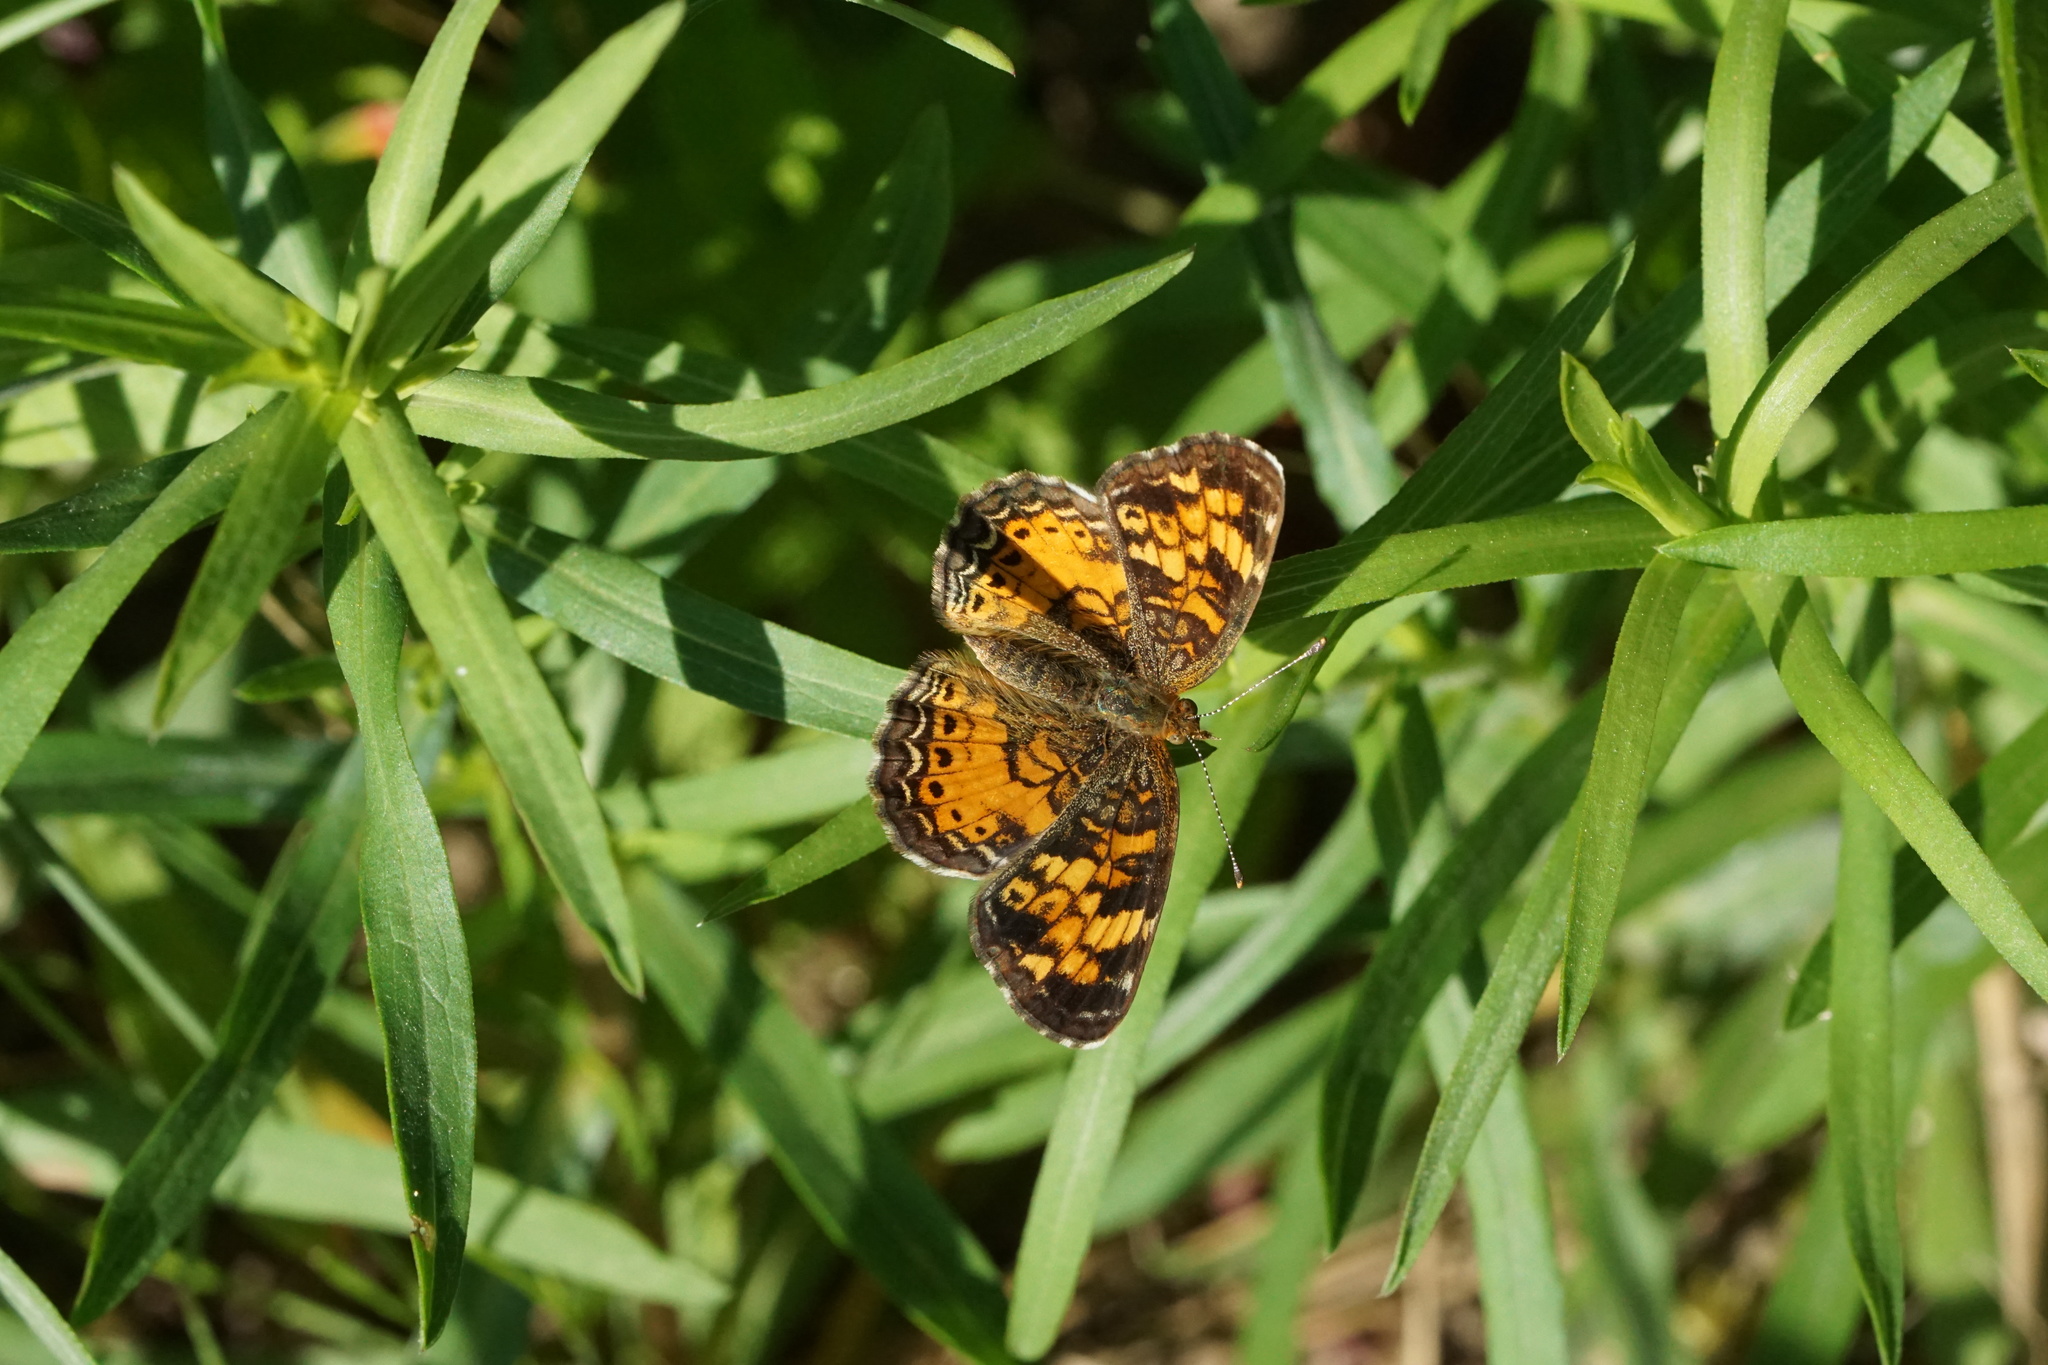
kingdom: Animalia
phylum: Arthropoda
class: Insecta
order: Lepidoptera
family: Nymphalidae
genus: Phyciodes
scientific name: Phyciodes tharos
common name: Pearl crescent
